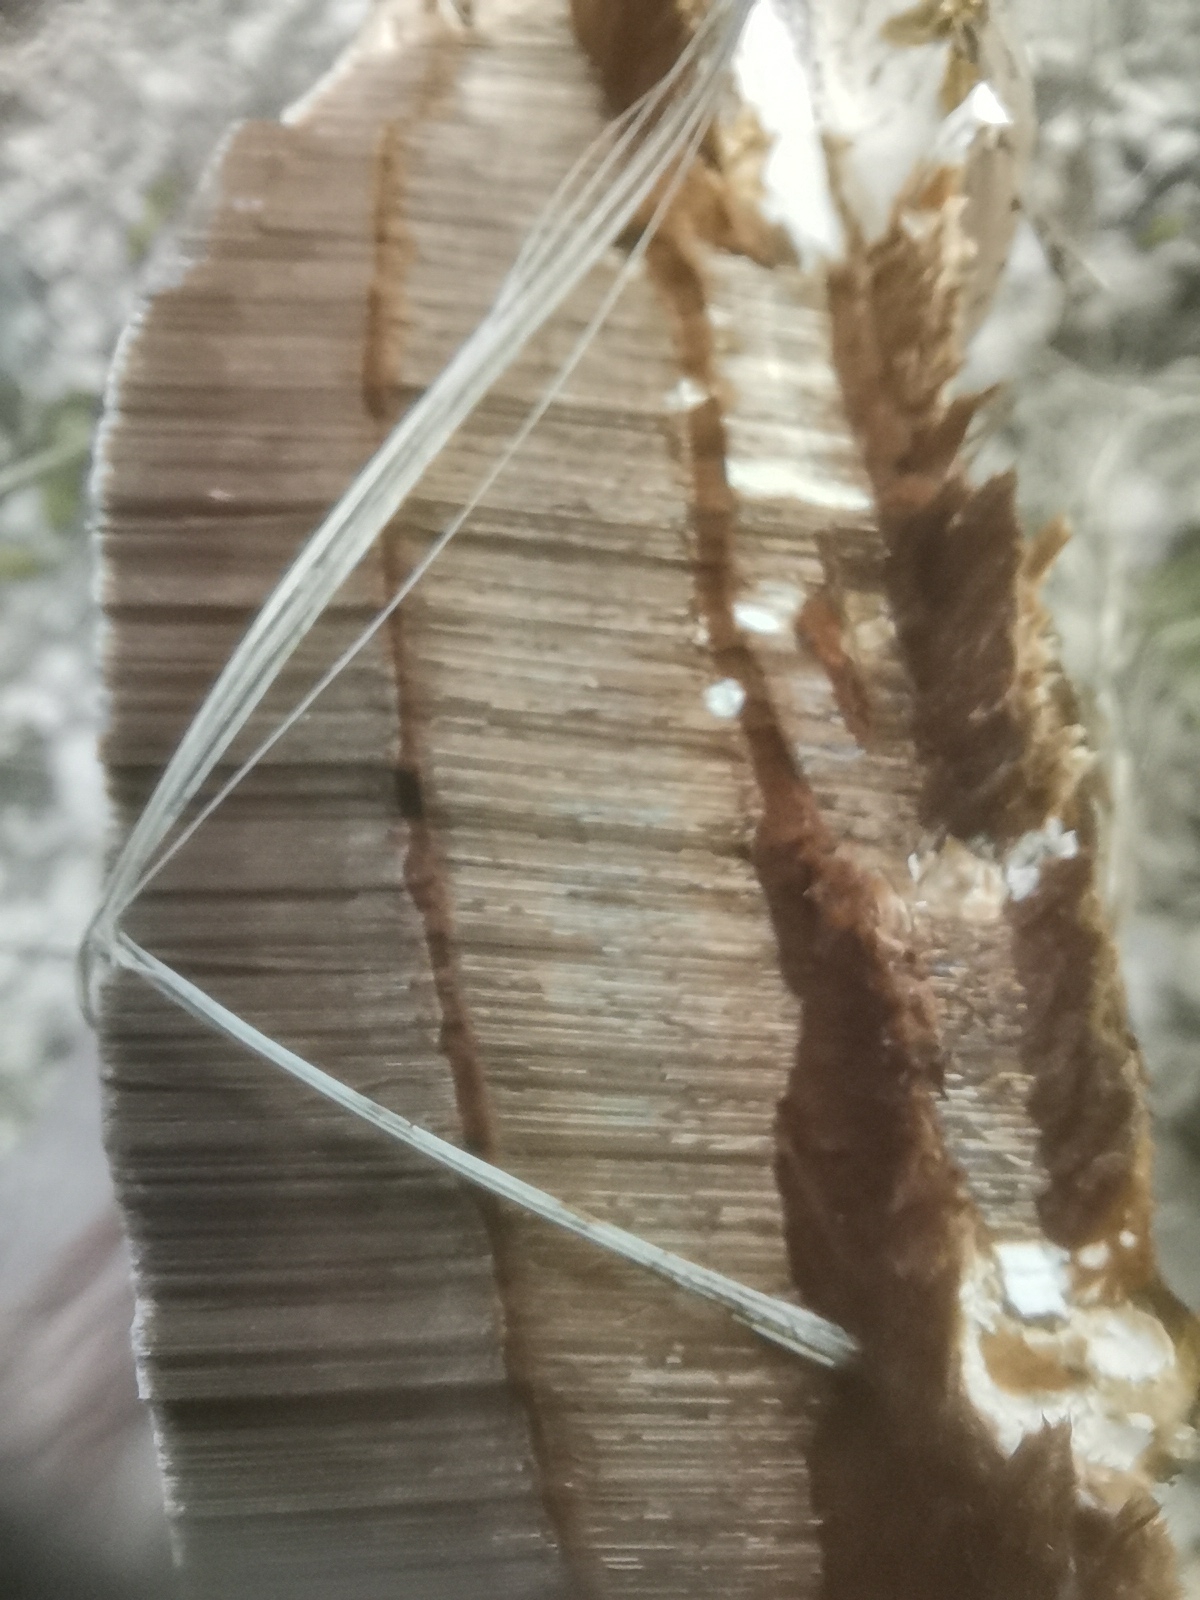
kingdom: Fungi
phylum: Basidiomycota
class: Agaricomycetes
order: Polyporales
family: Polyporaceae
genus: Ganoderma
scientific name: Ganoderma applanatum
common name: Artist's bracket
